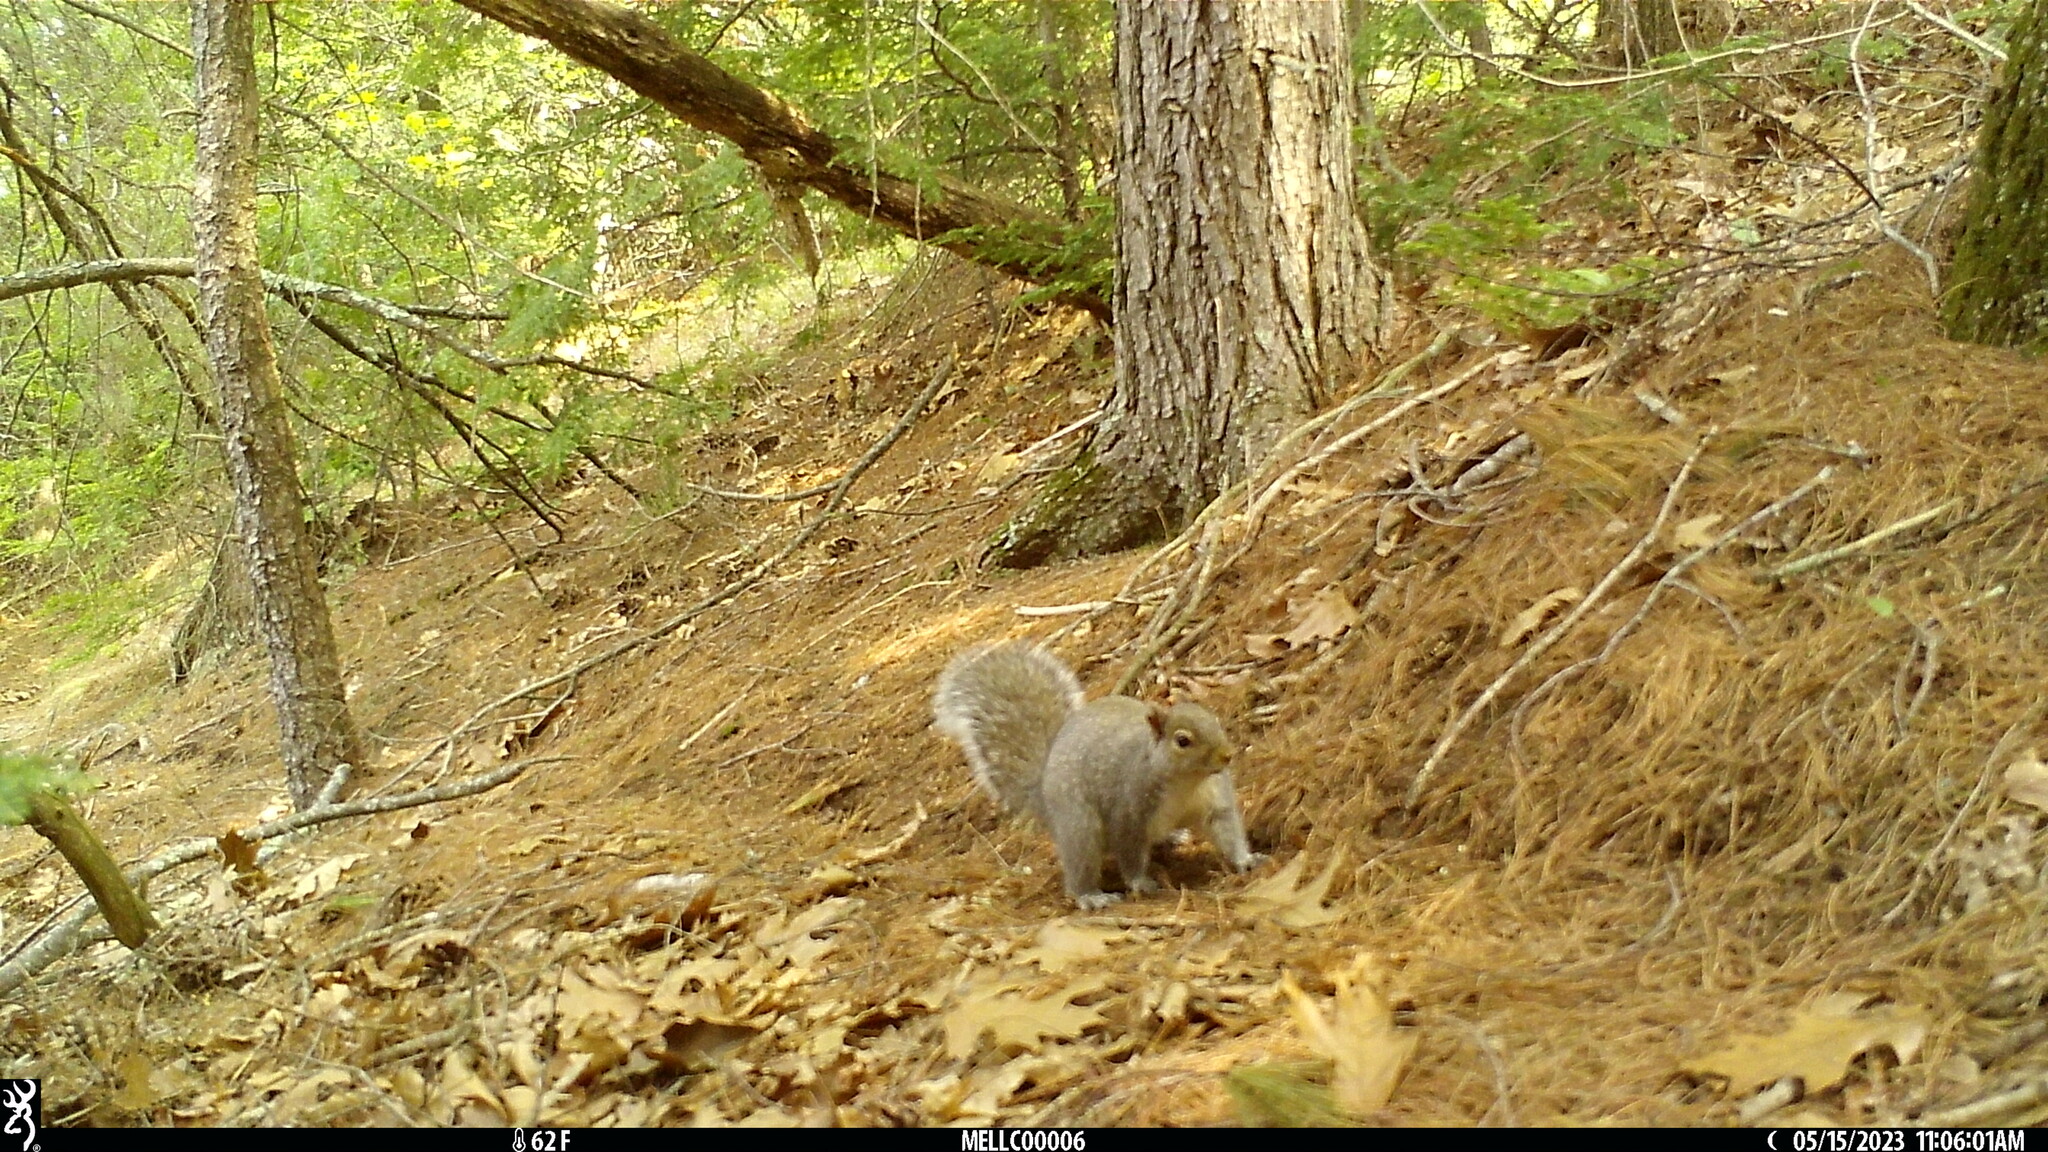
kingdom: Animalia
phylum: Chordata
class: Mammalia
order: Rodentia
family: Sciuridae
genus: Sciurus
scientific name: Sciurus carolinensis
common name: Eastern gray squirrel
